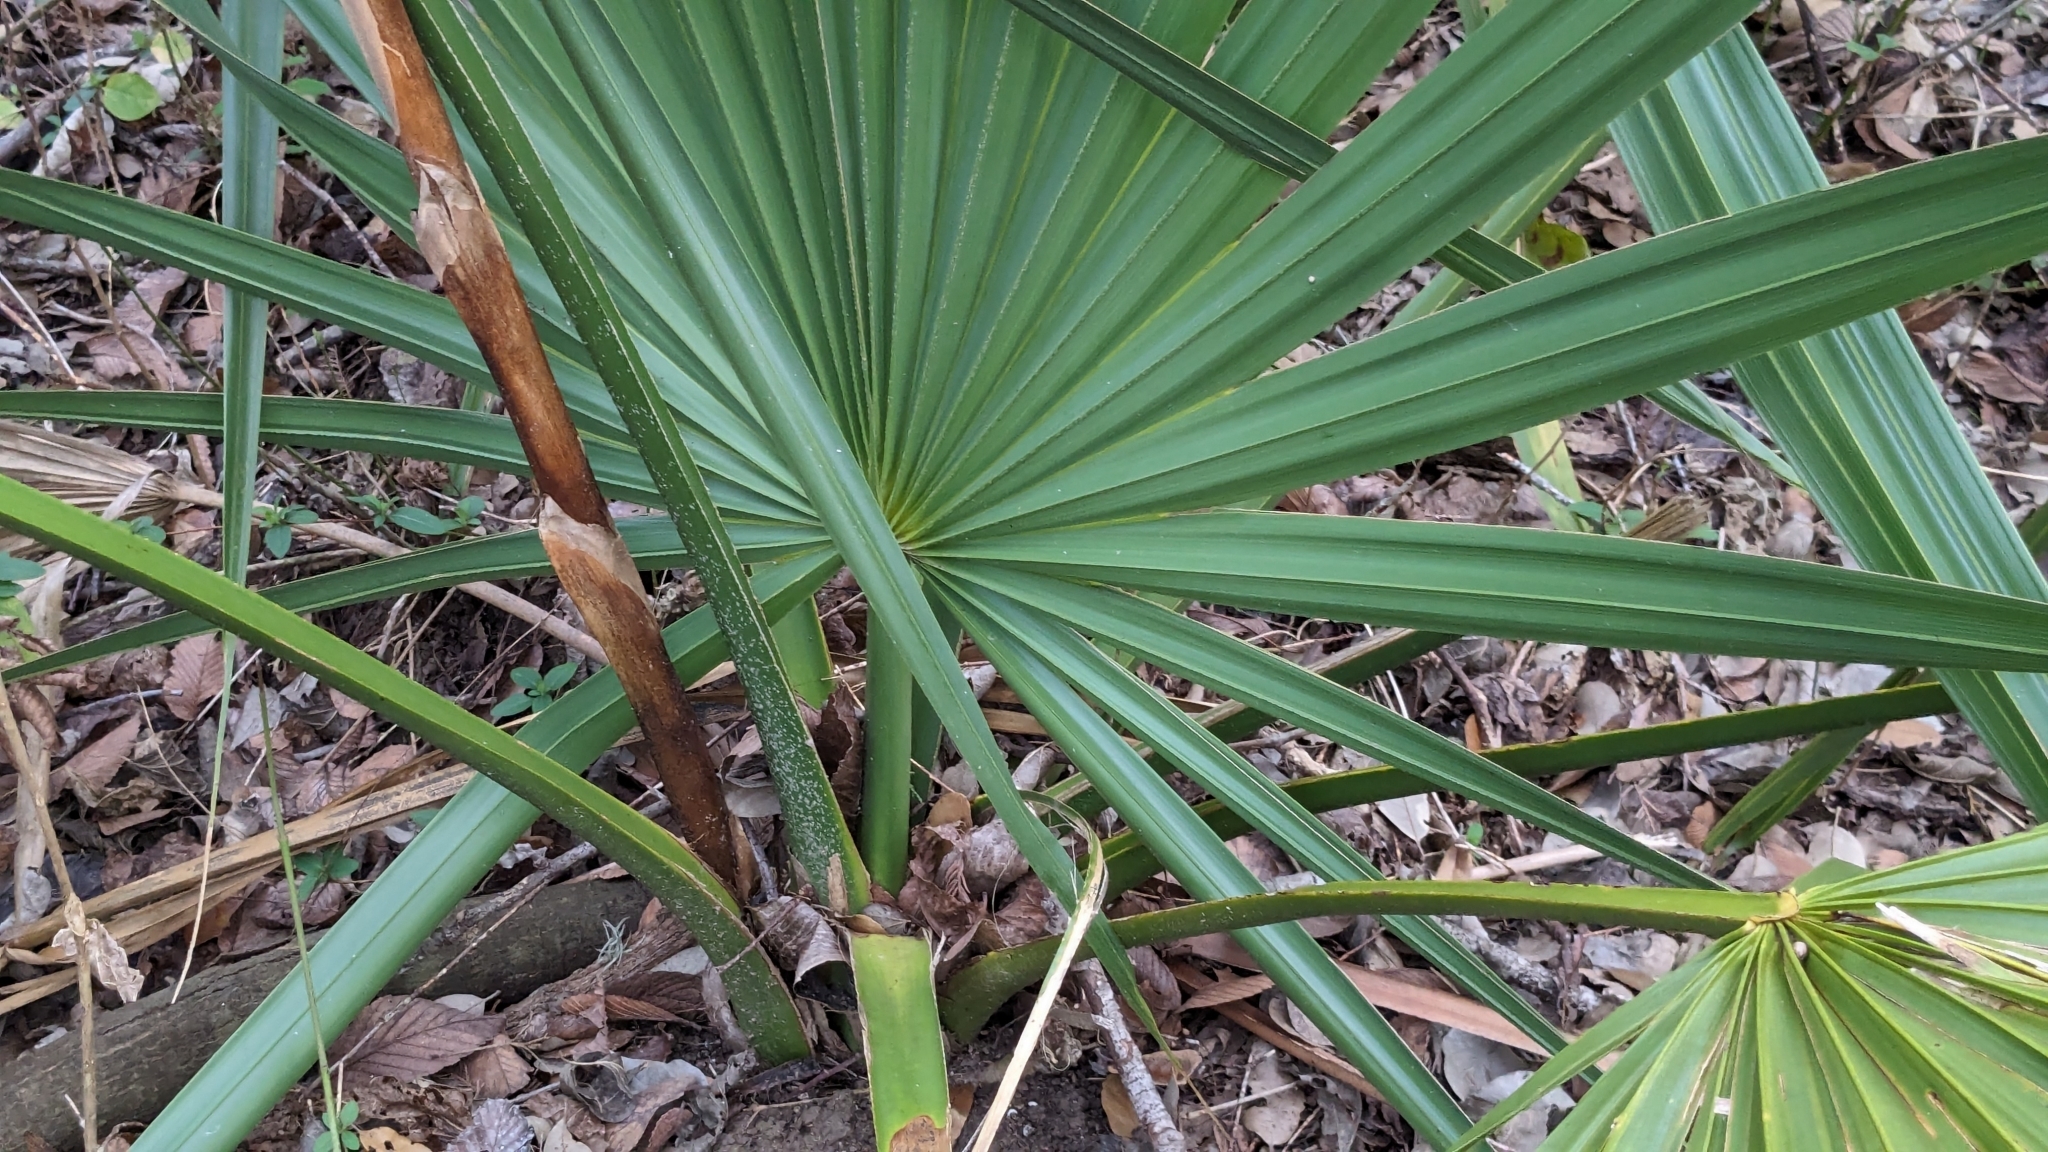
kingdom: Plantae
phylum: Tracheophyta
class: Liliopsida
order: Arecales
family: Arecaceae
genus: Sabal
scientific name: Sabal minor
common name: Dwarf palmetto
